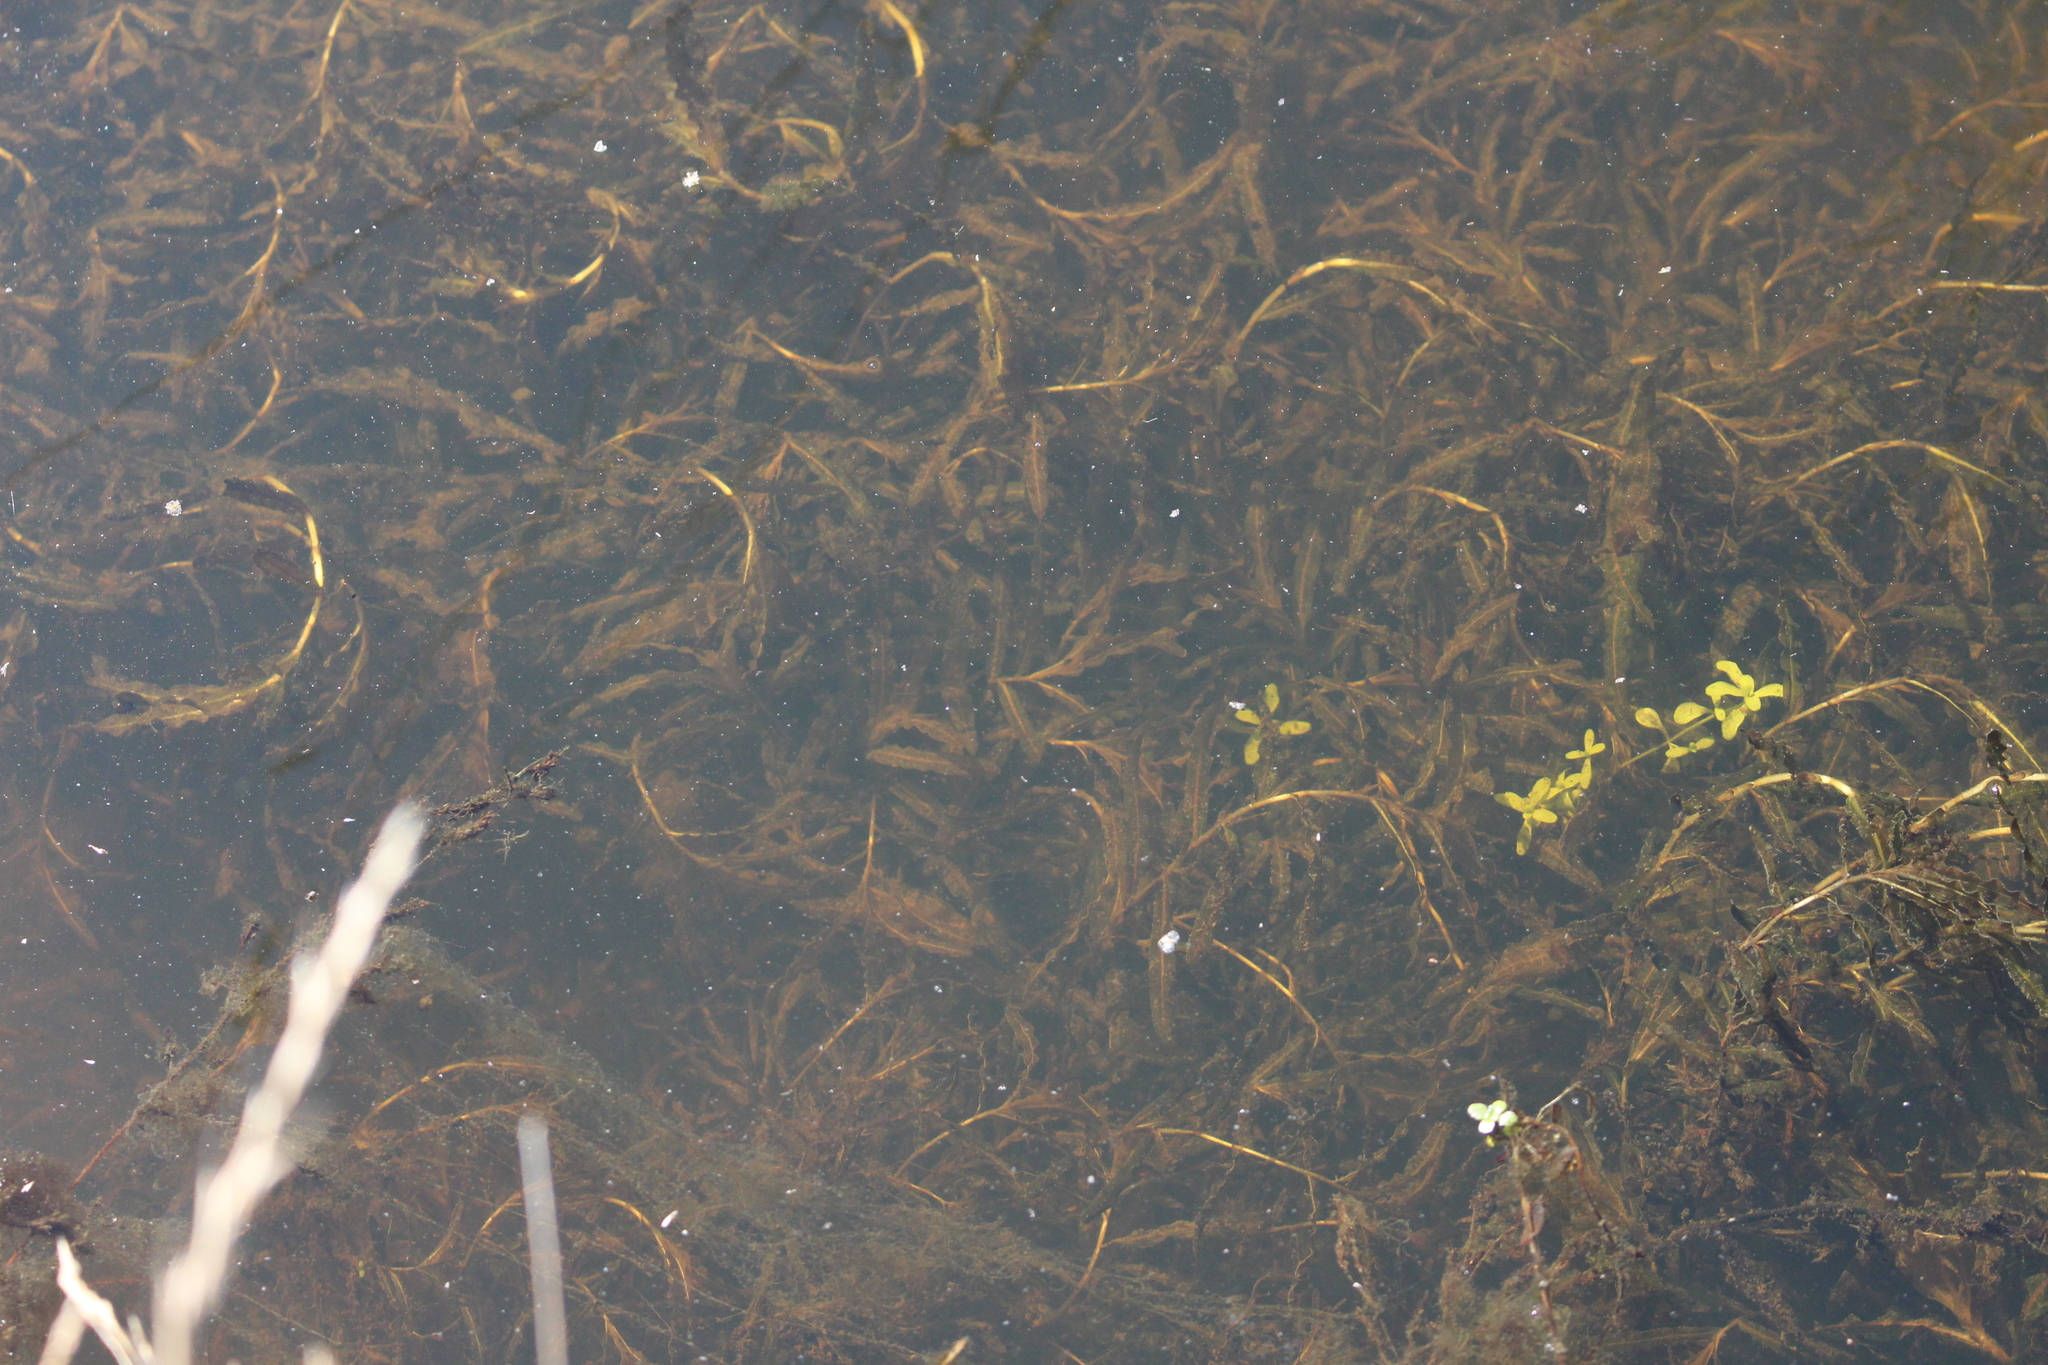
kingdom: Plantae
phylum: Tracheophyta
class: Liliopsida
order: Alismatales
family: Potamogetonaceae
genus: Potamogeton
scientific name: Potamogeton crispus
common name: Curled pondweed
